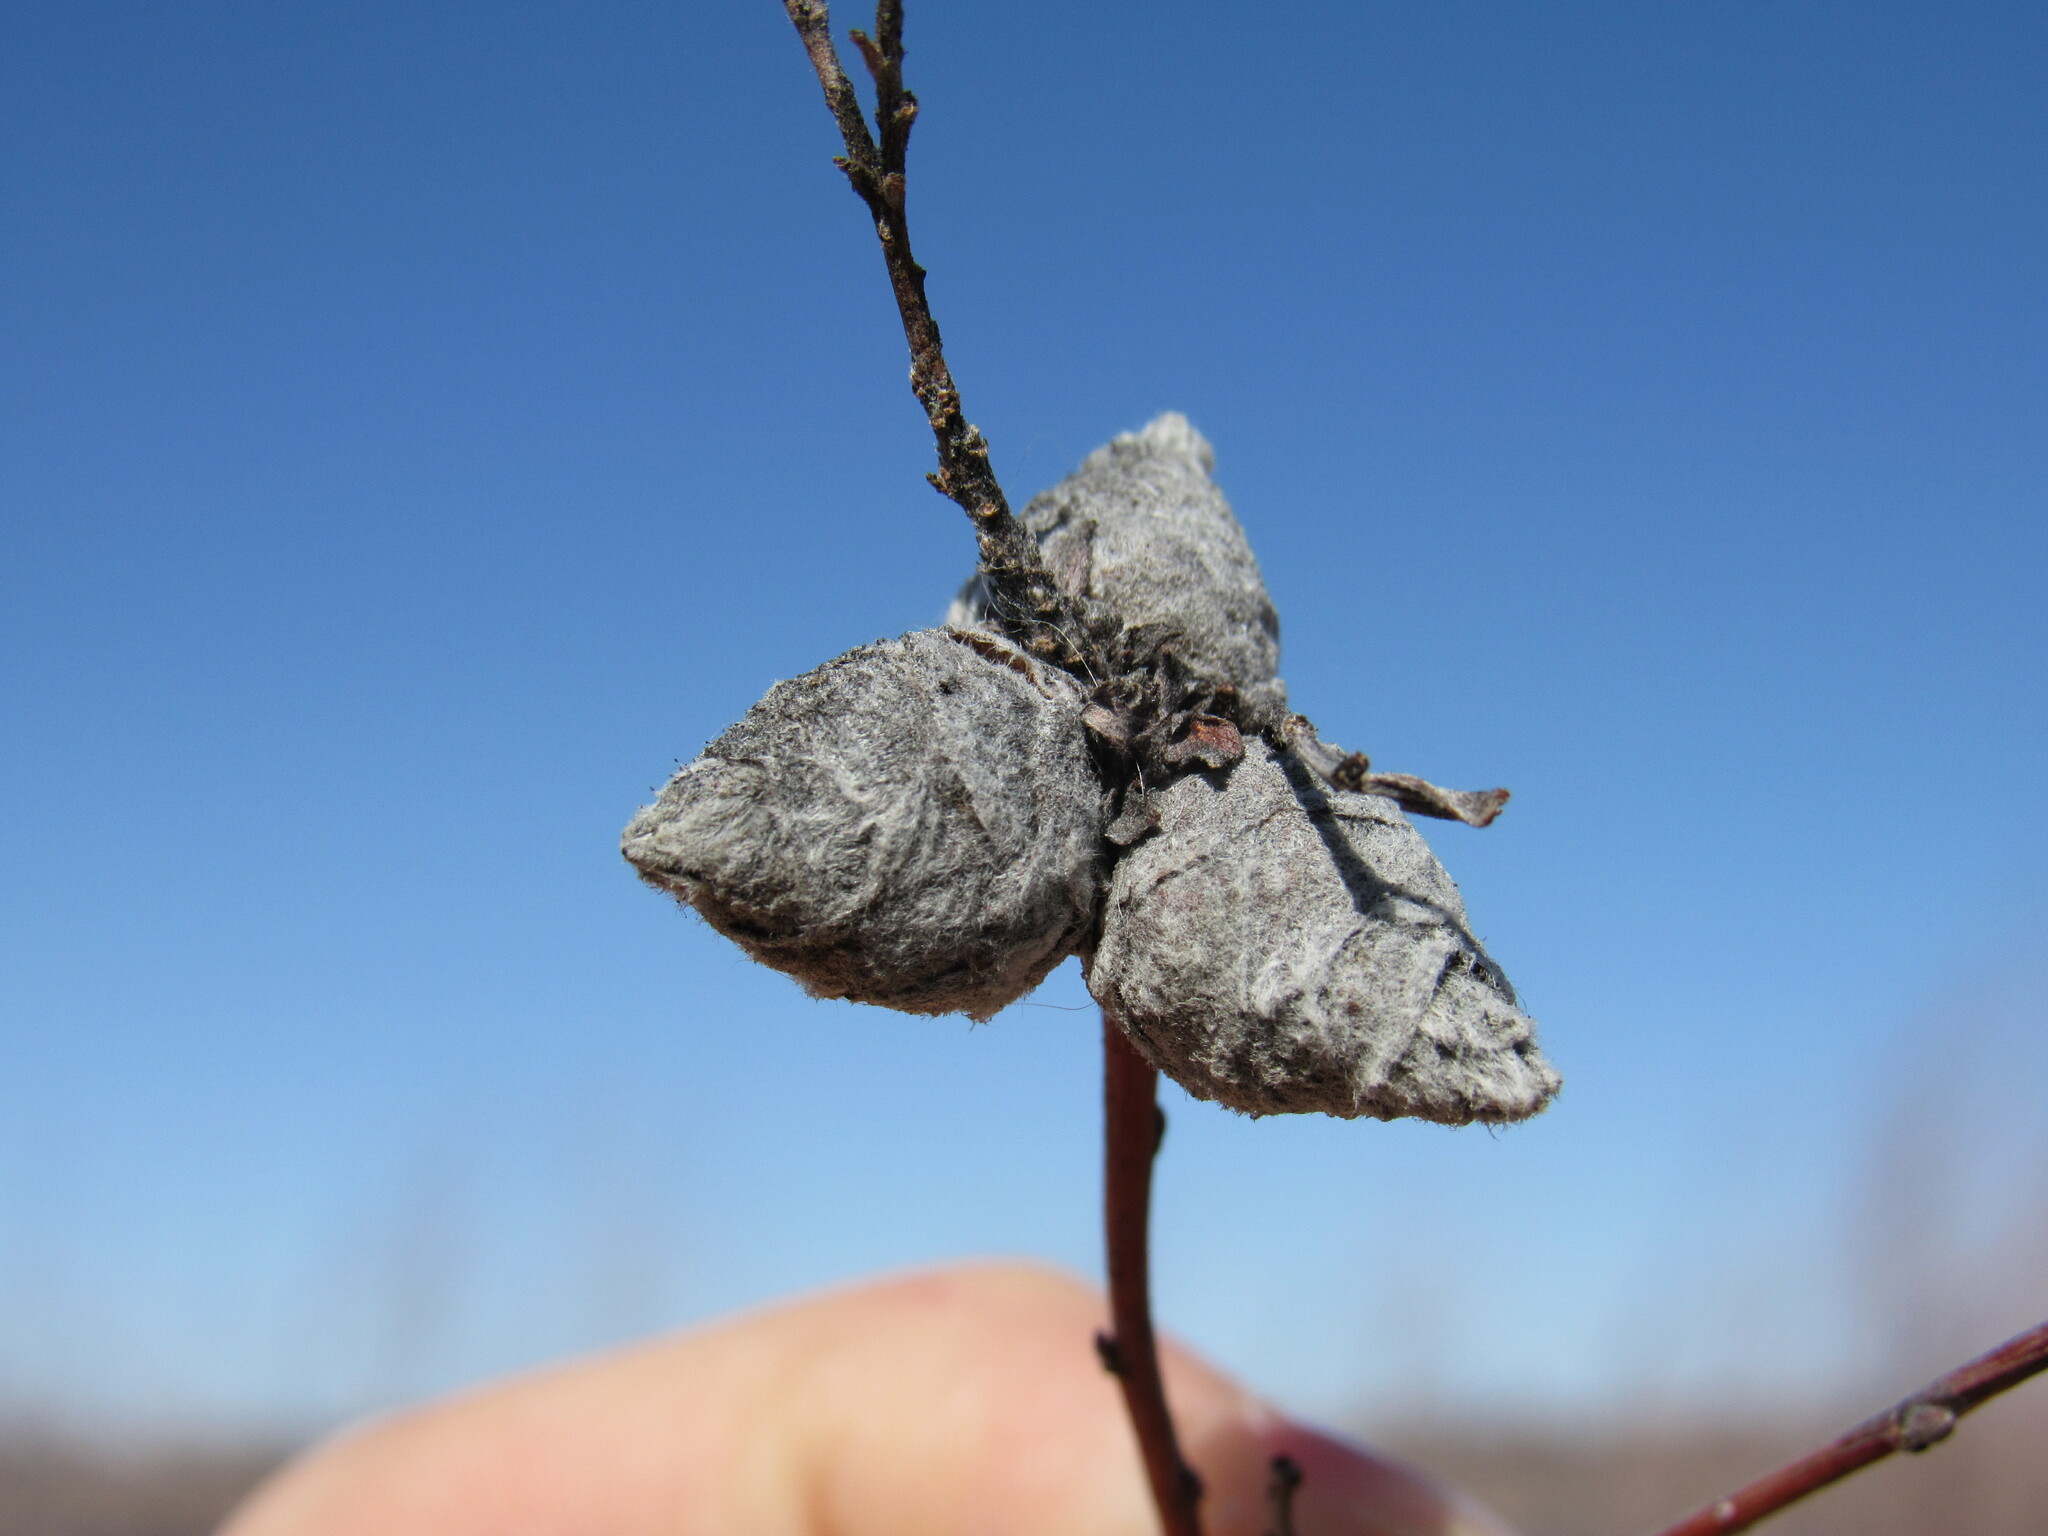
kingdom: Animalia
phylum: Arthropoda
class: Insecta
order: Diptera
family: Cecidomyiidae
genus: Rabdophaga
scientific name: Rabdophaga strobiloides
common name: Willow pinecone gall midge
